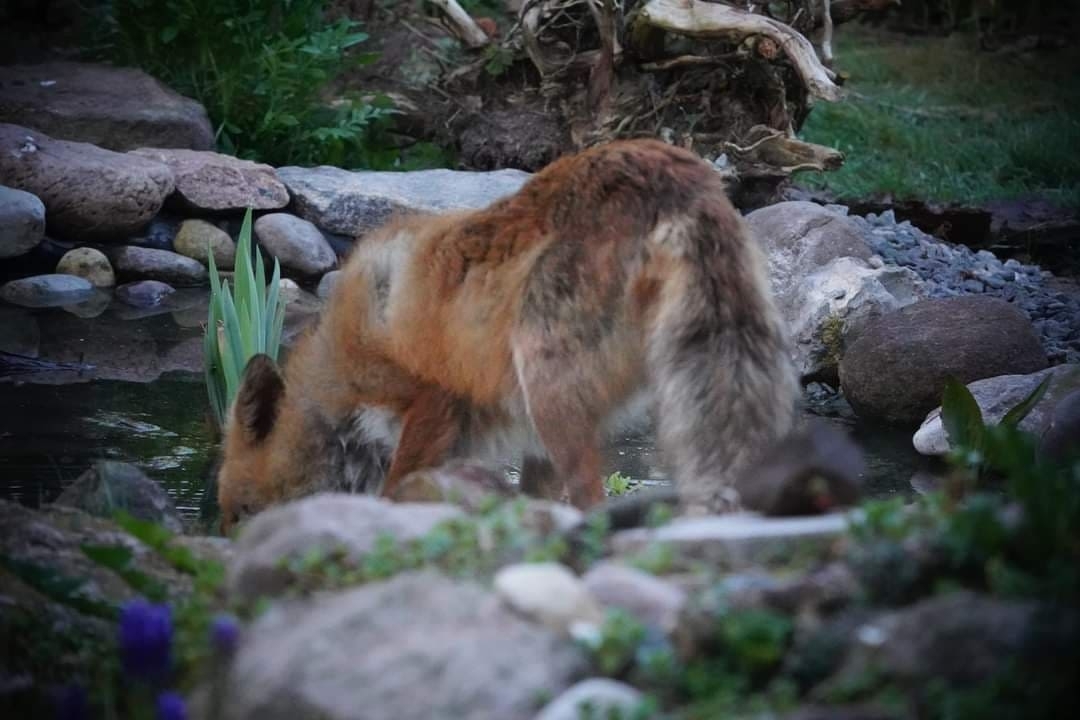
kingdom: Animalia
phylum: Chordata
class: Mammalia
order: Carnivora
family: Canidae
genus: Vulpes
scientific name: Vulpes vulpes
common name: Red fox
